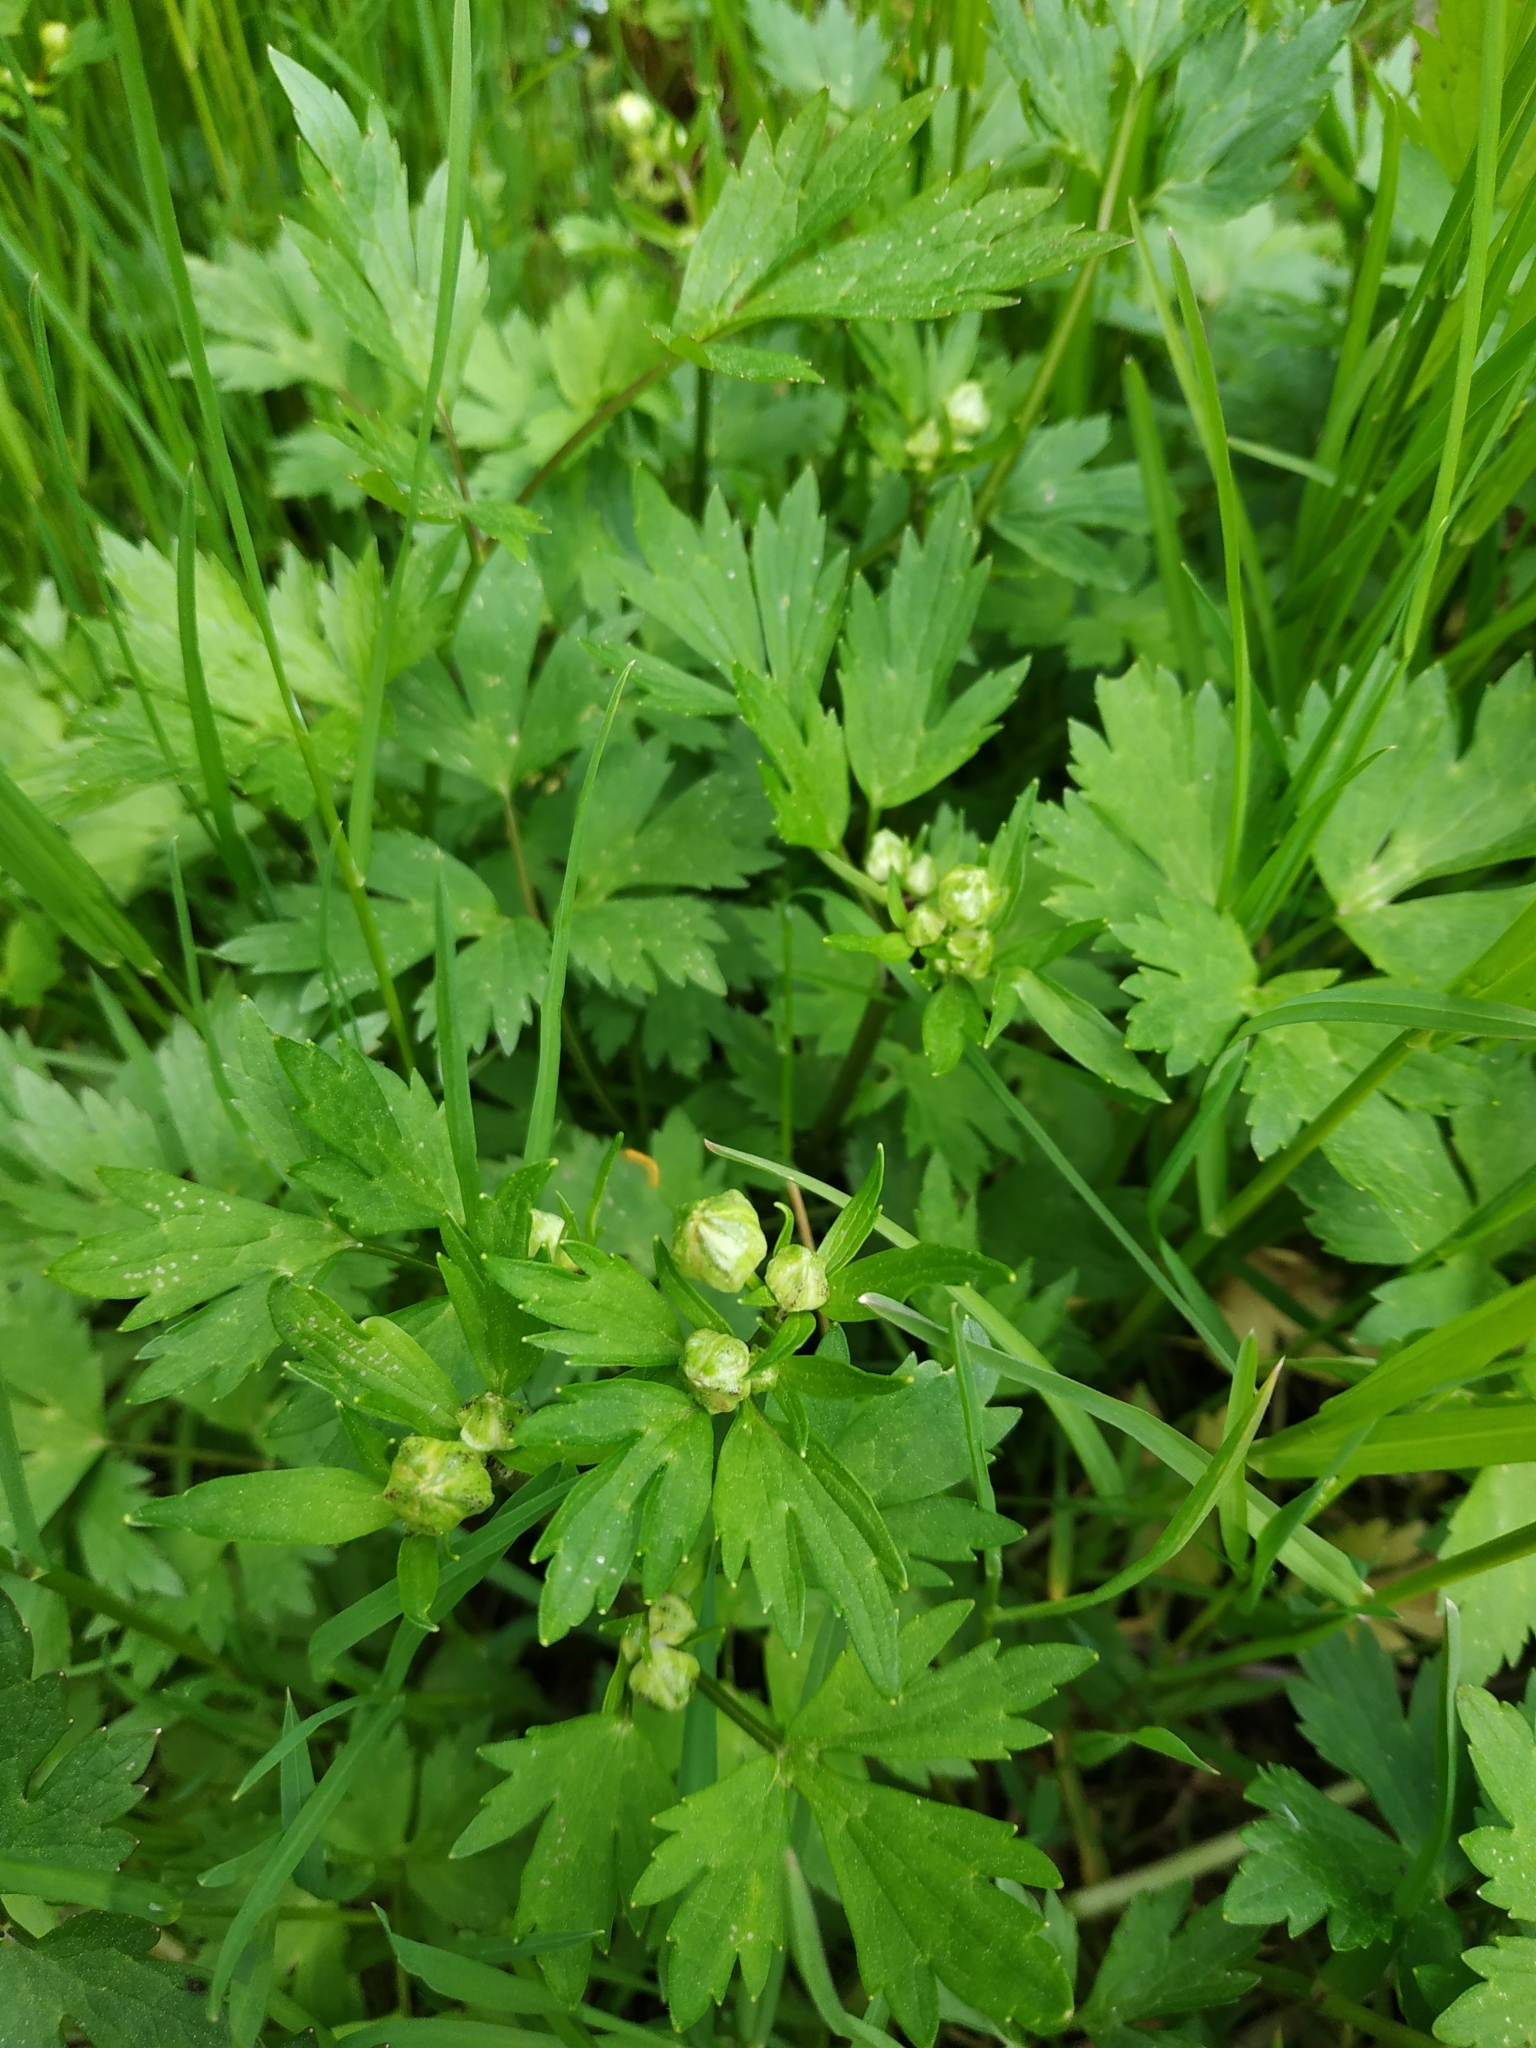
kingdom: Plantae
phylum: Tracheophyta
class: Magnoliopsida
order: Ranunculales
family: Ranunculaceae
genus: Ranunculus
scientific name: Ranunculus repens
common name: Creeping buttercup
